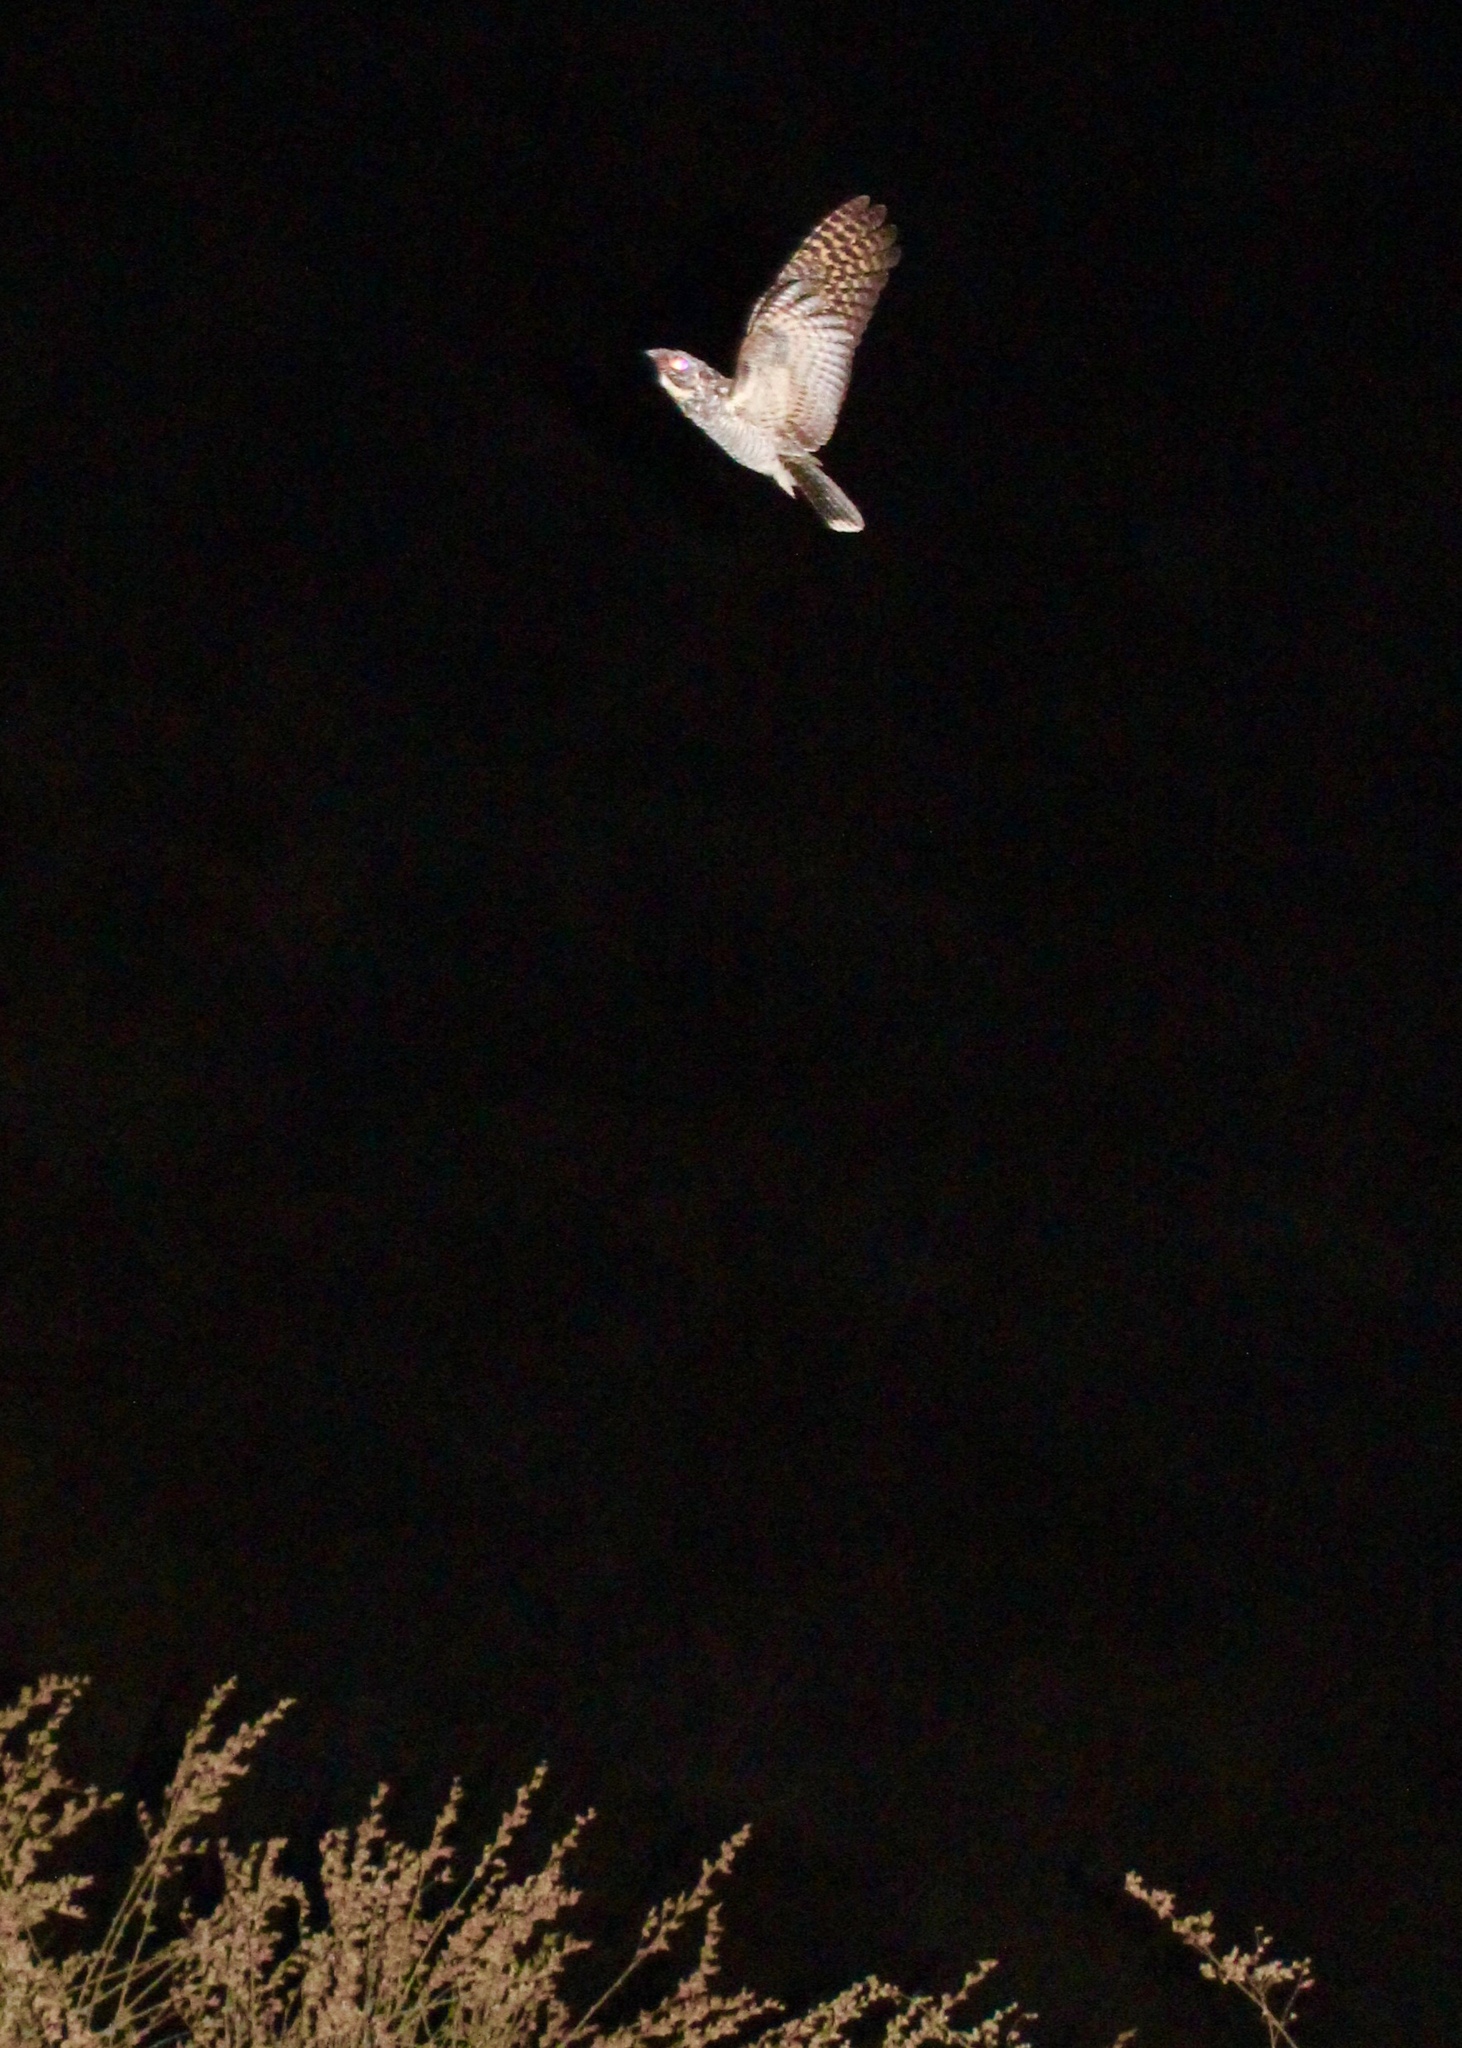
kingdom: Animalia
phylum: Chordata
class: Aves
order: Caprimulgiformes
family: Caprimulgidae
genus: Phalaenoptilus
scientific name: Phalaenoptilus nuttallii
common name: Common poorwill
